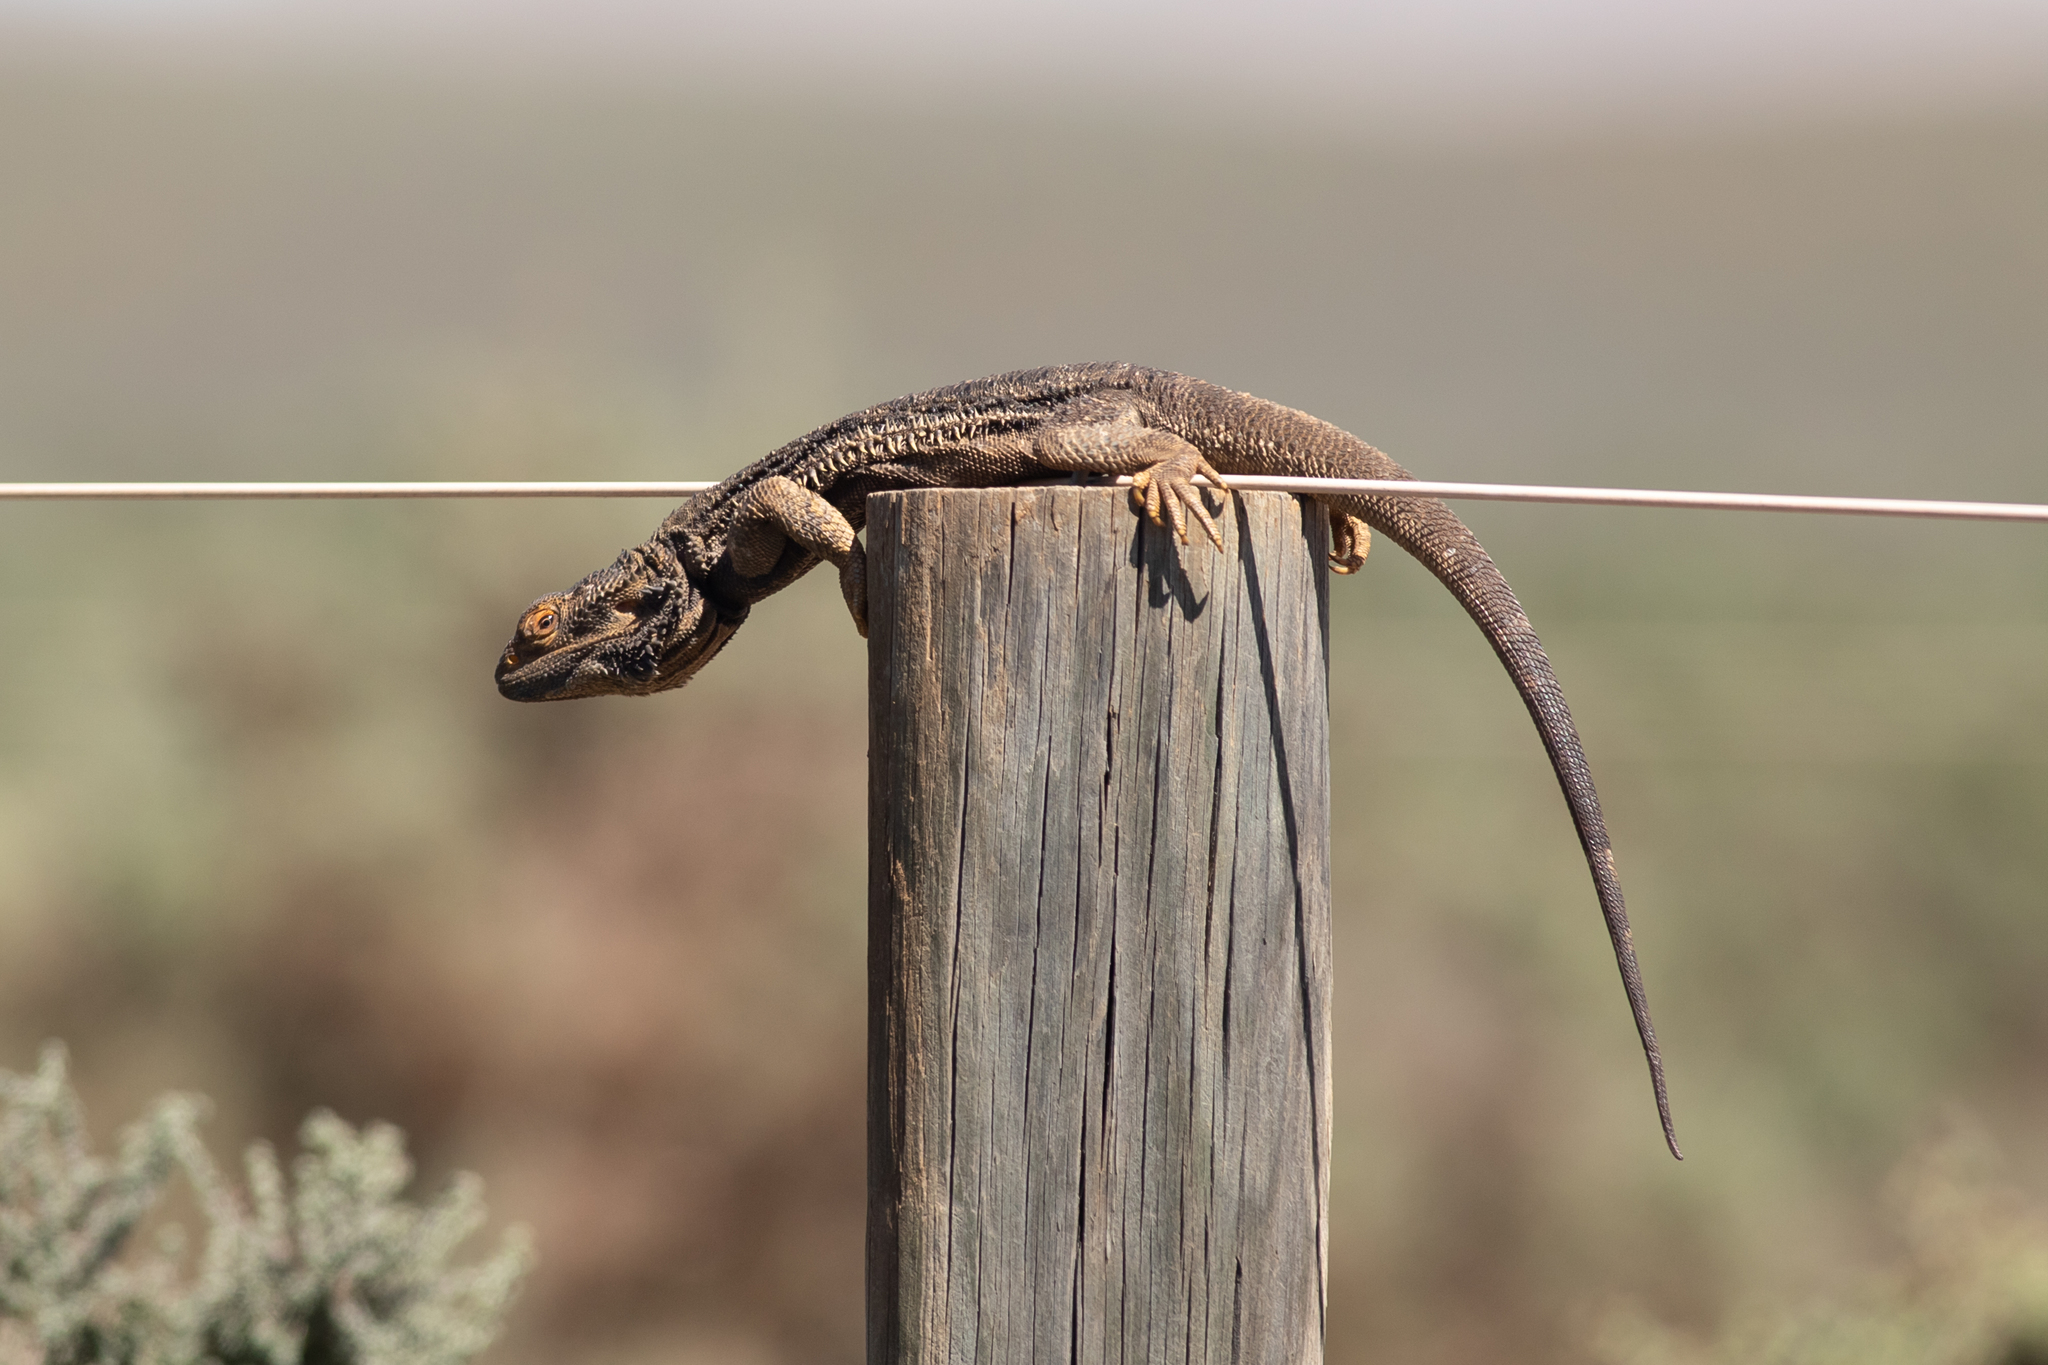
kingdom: Animalia
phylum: Chordata
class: Squamata
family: Agamidae
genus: Pogona
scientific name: Pogona vitticeps
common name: Central bearded dragon
